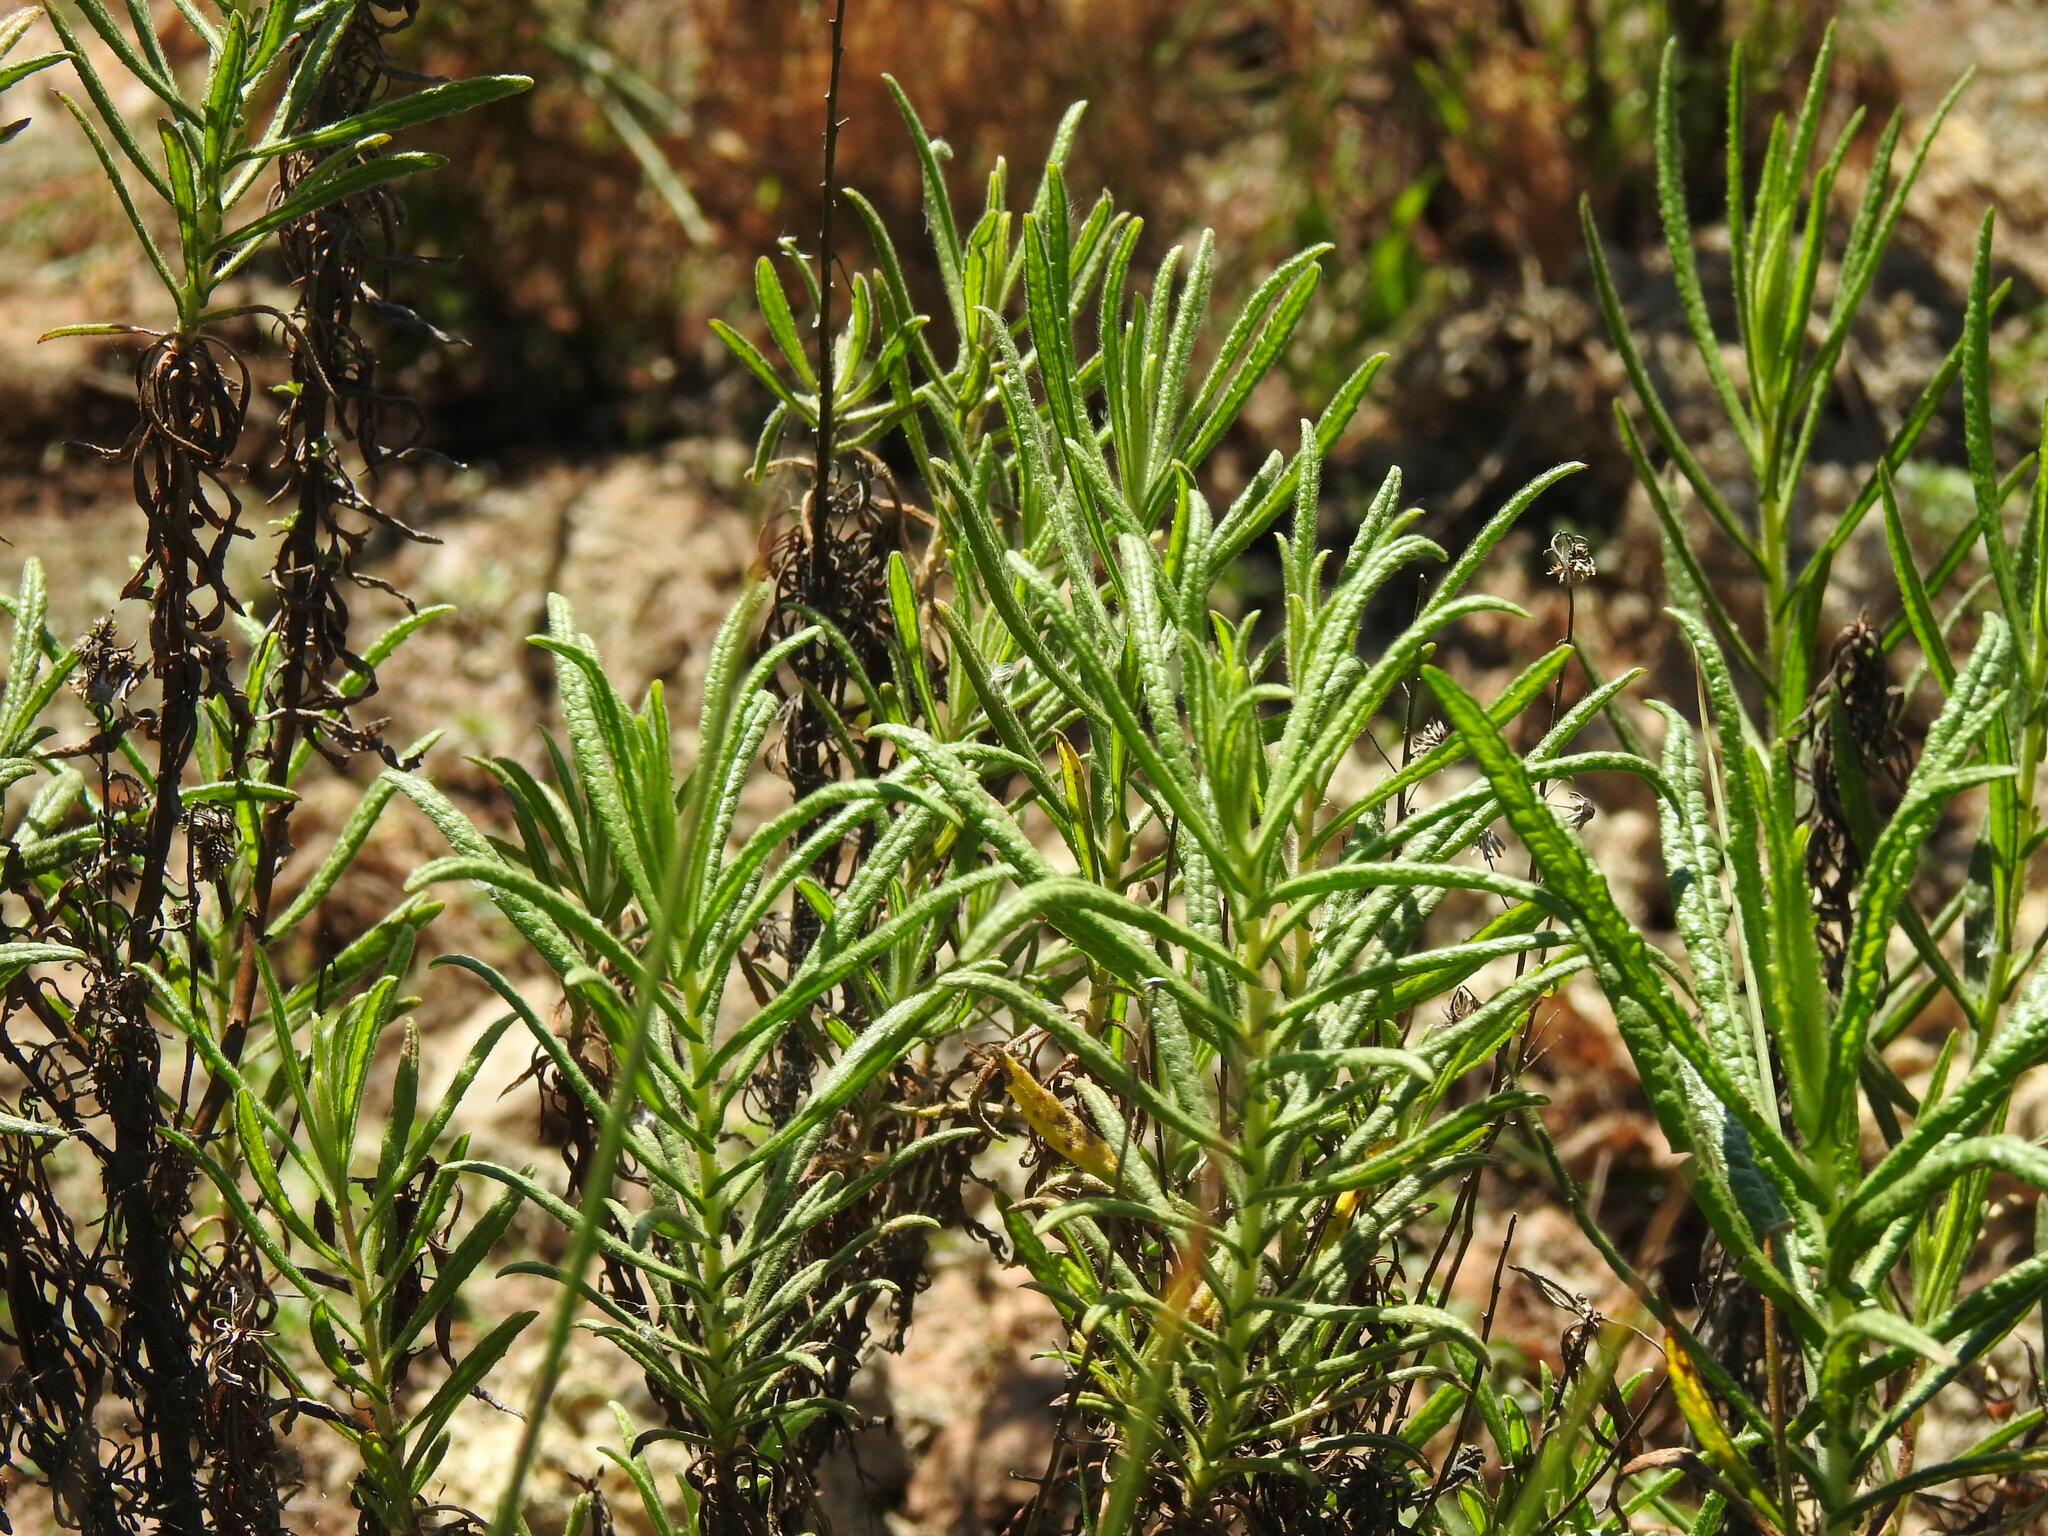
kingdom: Plantae
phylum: Tracheophyta
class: Magnoliopsida
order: Asterales
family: Asteraceae
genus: Dittrichia
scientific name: Dittrichia viscosa
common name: Woody fleabane
